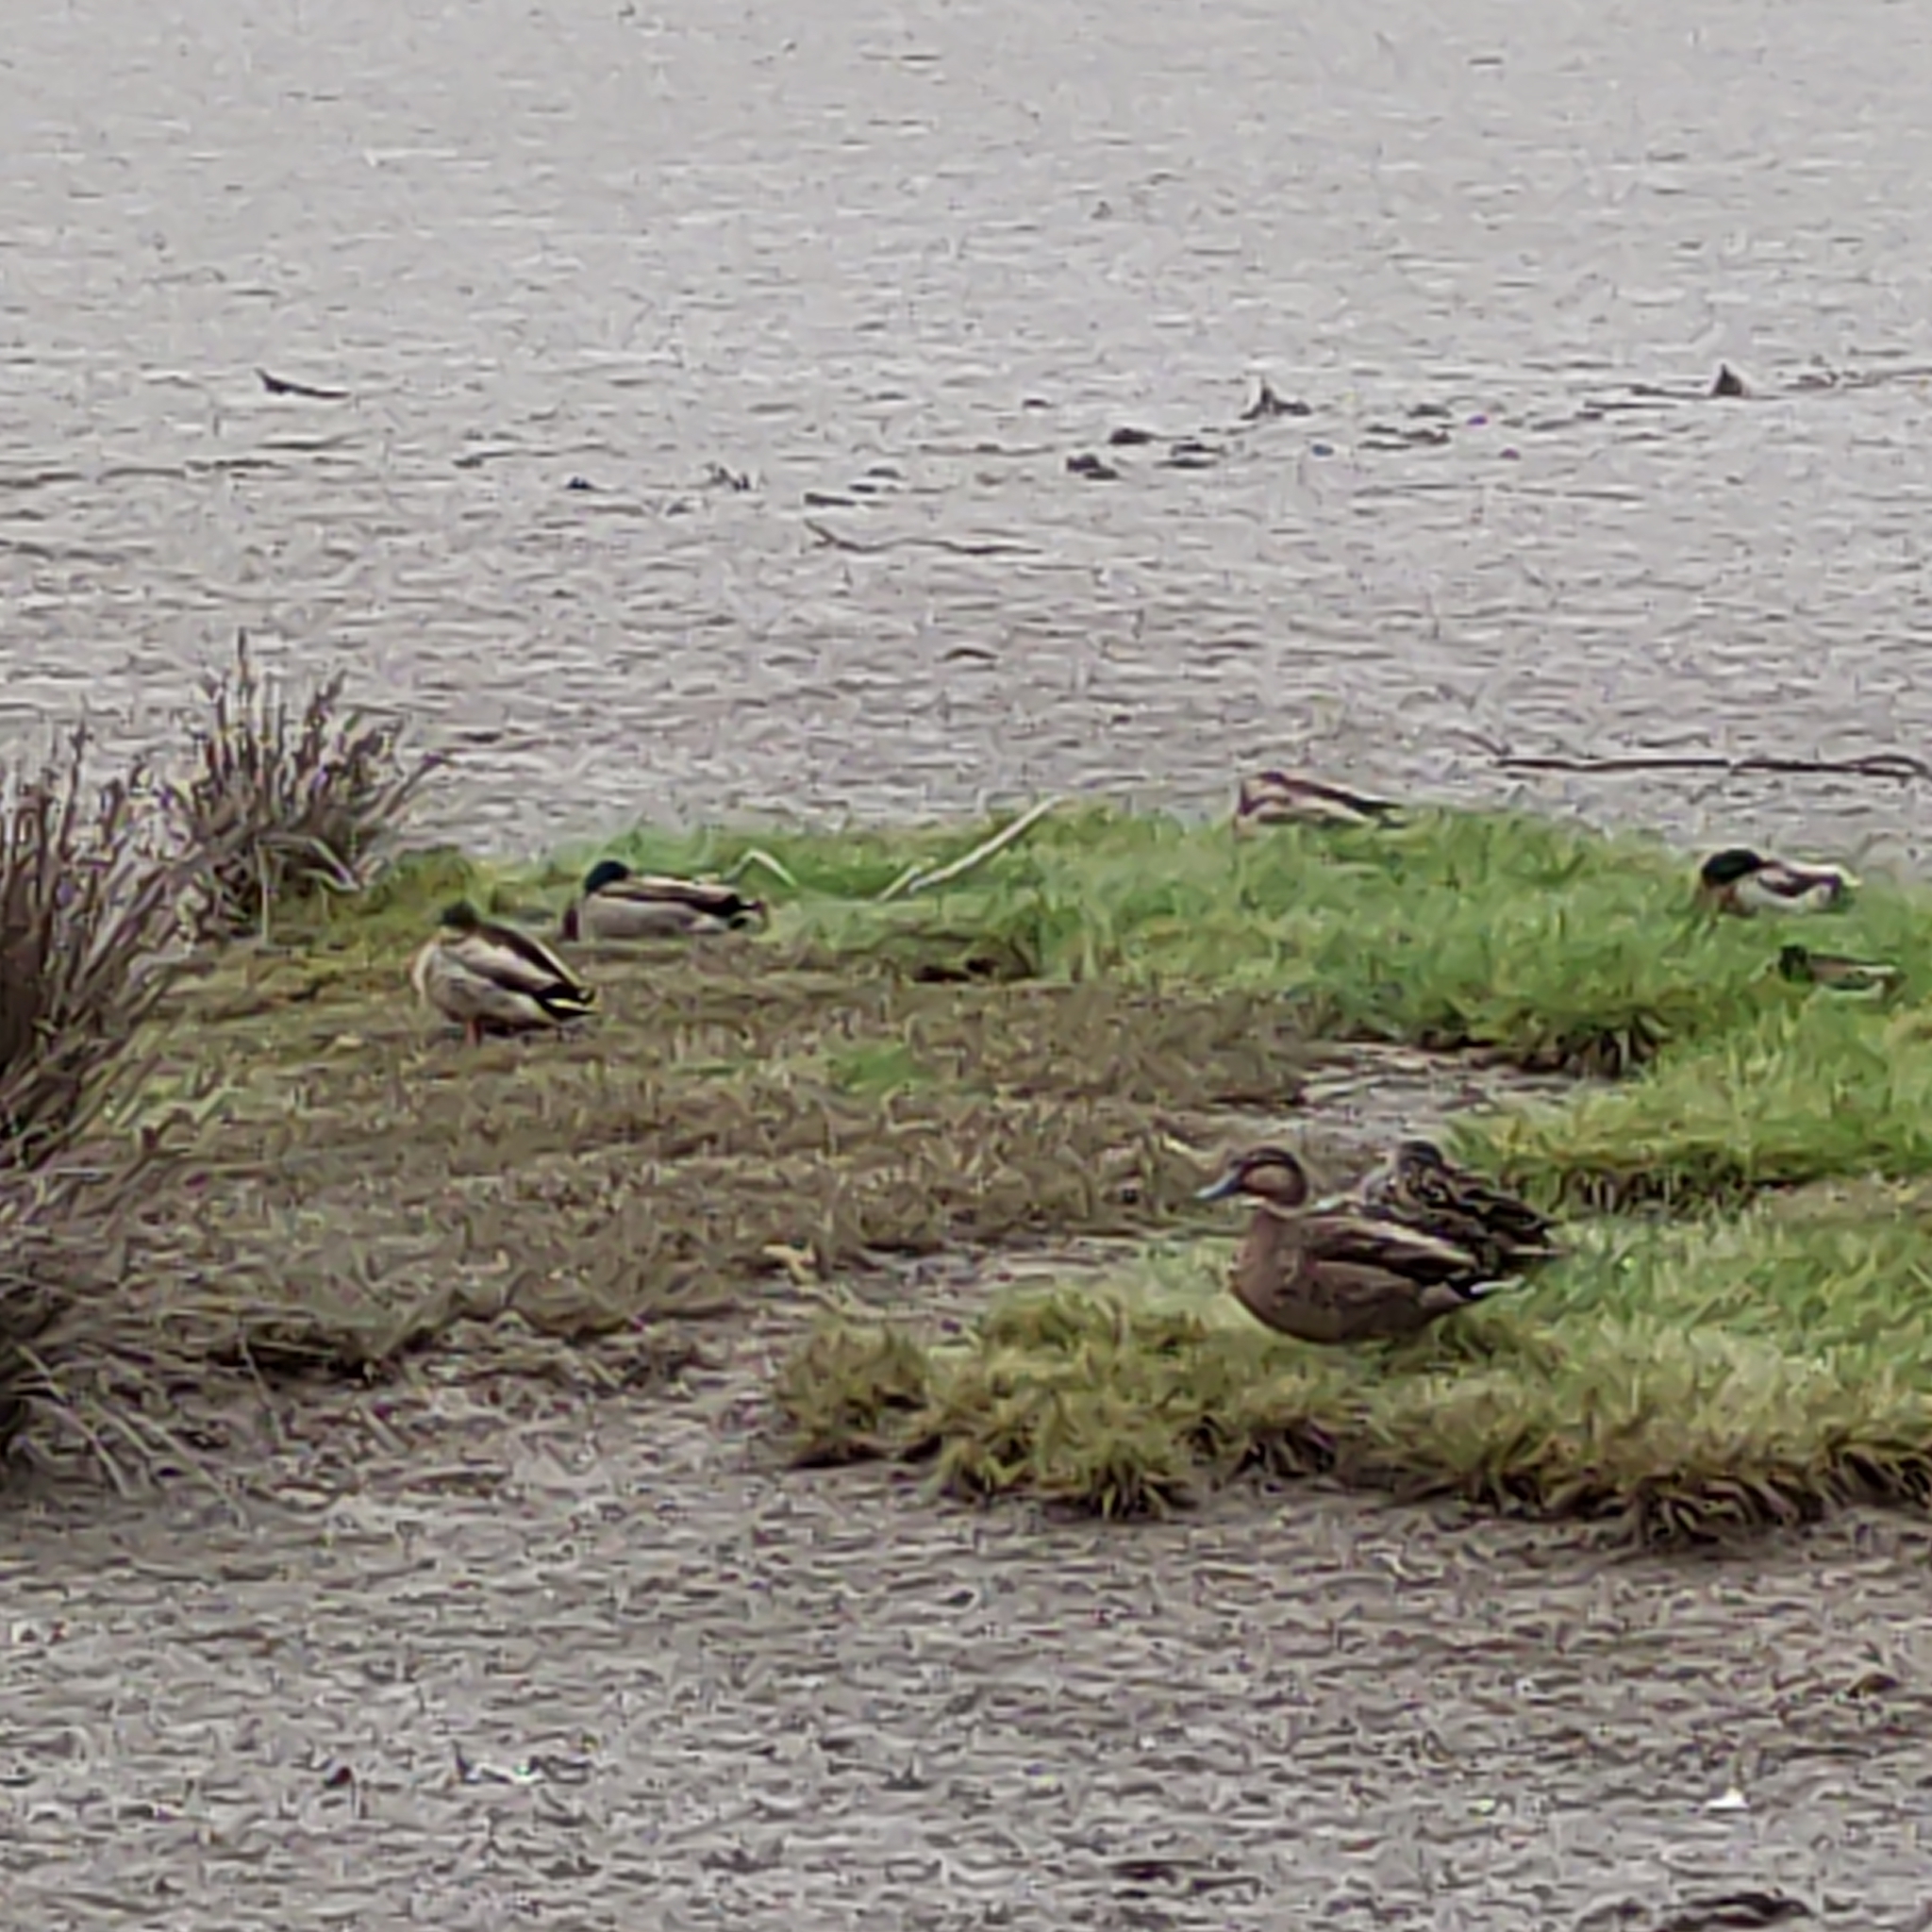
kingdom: Animalia
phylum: Chordata
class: Aves
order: Anseriformes
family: Anatidae
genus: Anas
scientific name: Anas platyrhynchos
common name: Mallard
